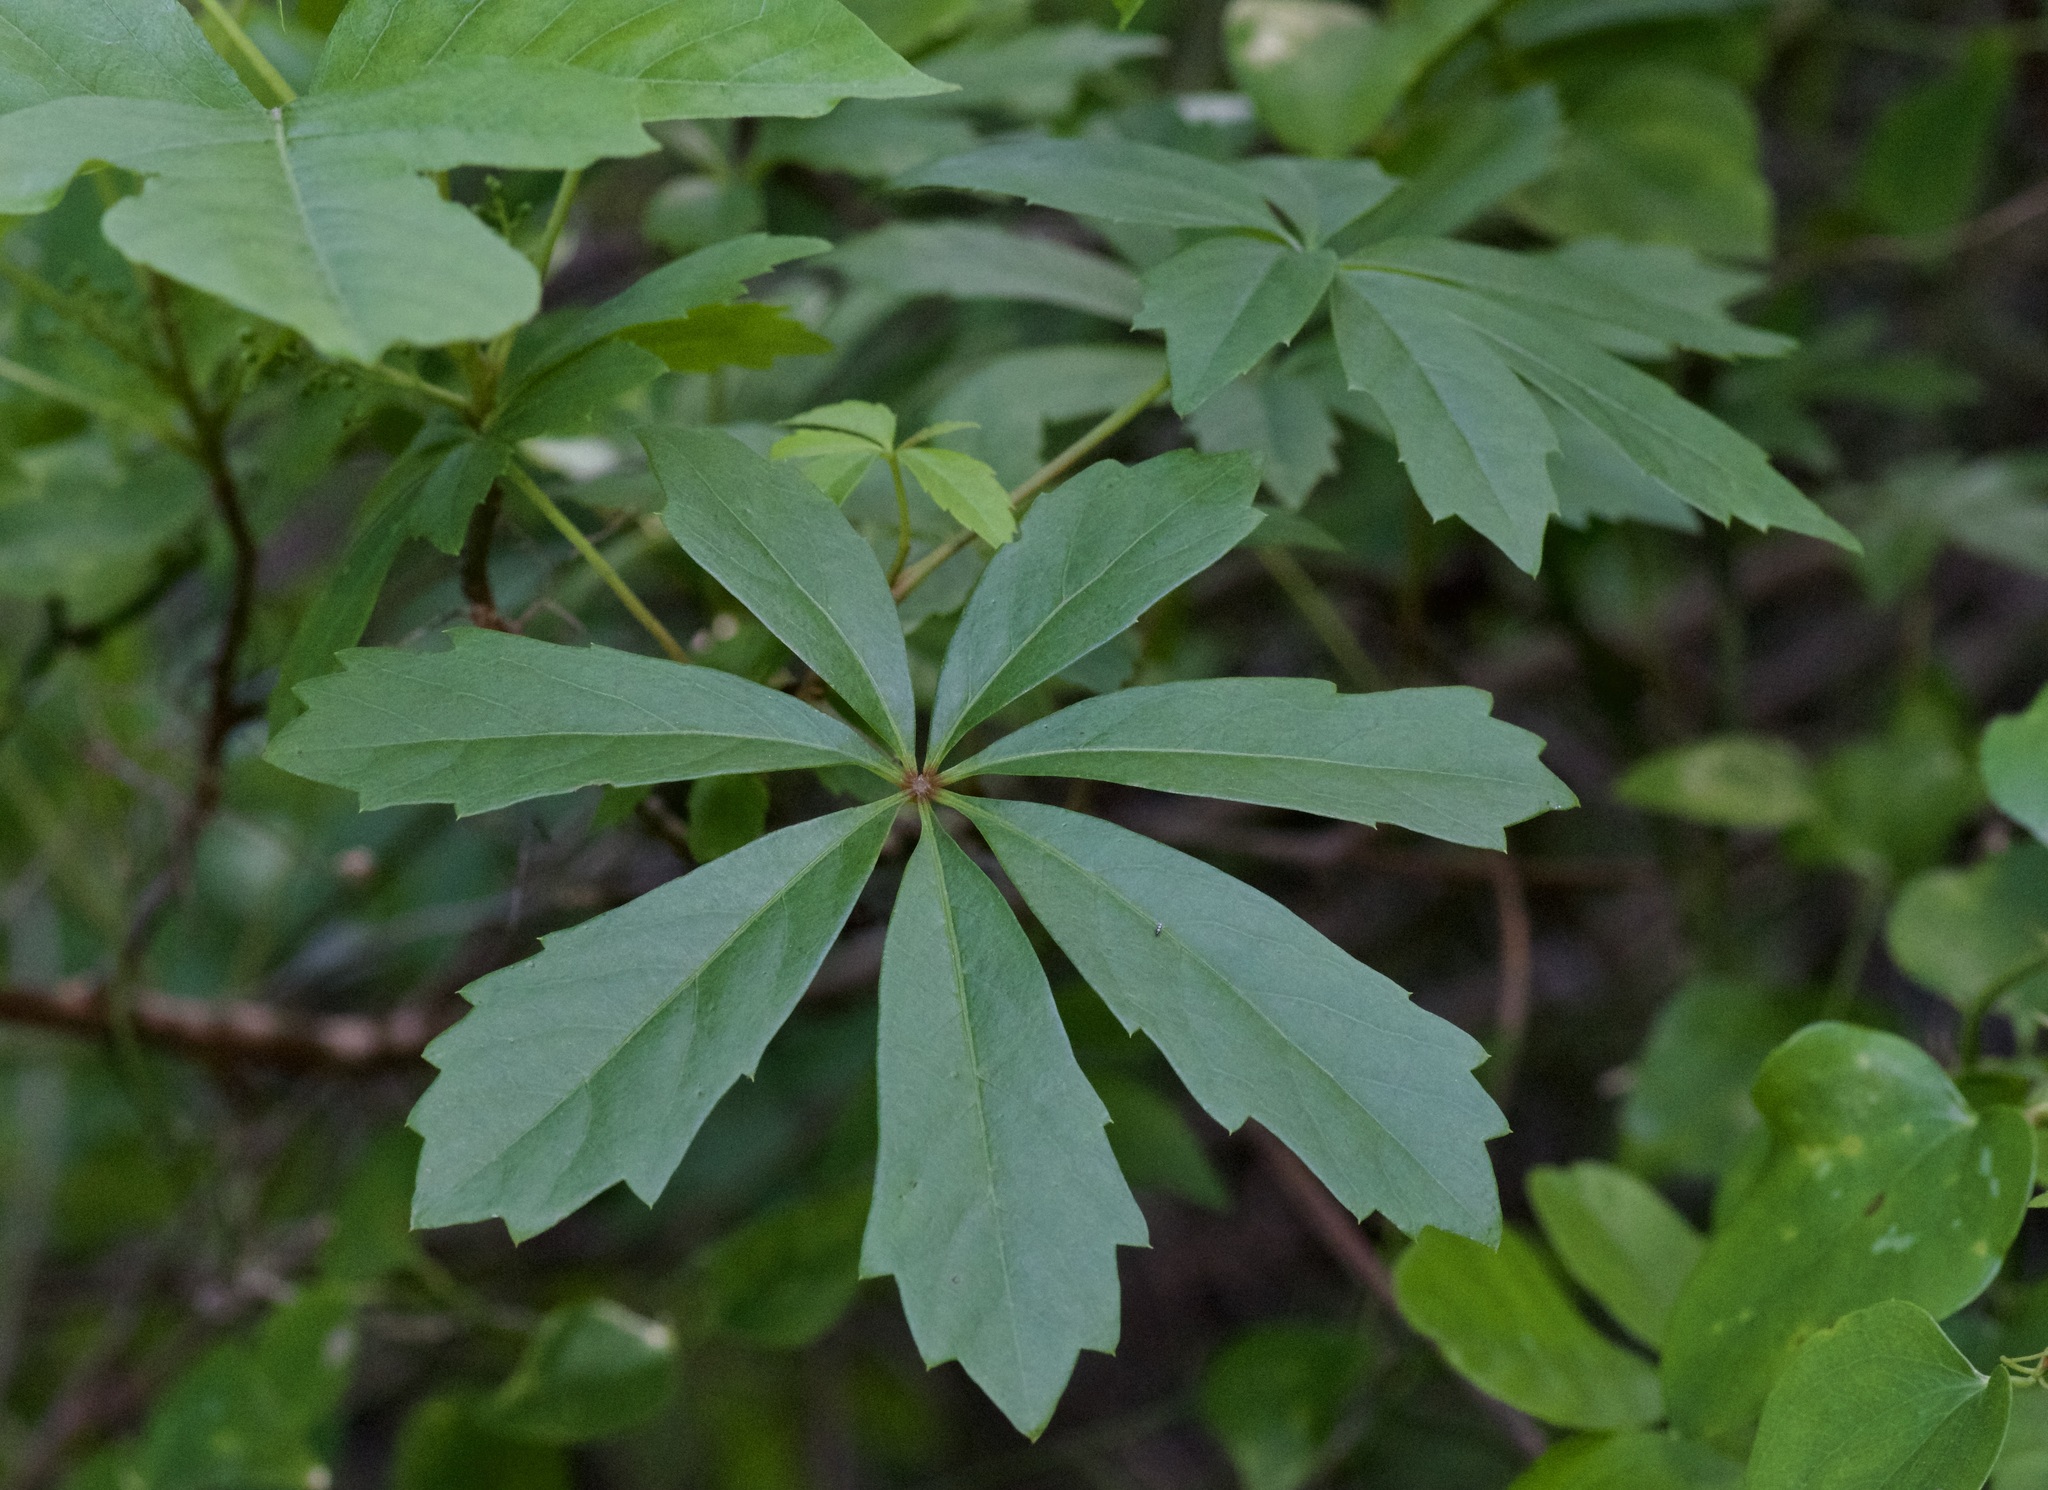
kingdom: Plantae
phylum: Tracheophyta
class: Magnoliopsida
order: Vitales
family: Vitaceae
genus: Parthenocissus
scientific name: Parthenocissus heptaphylla
